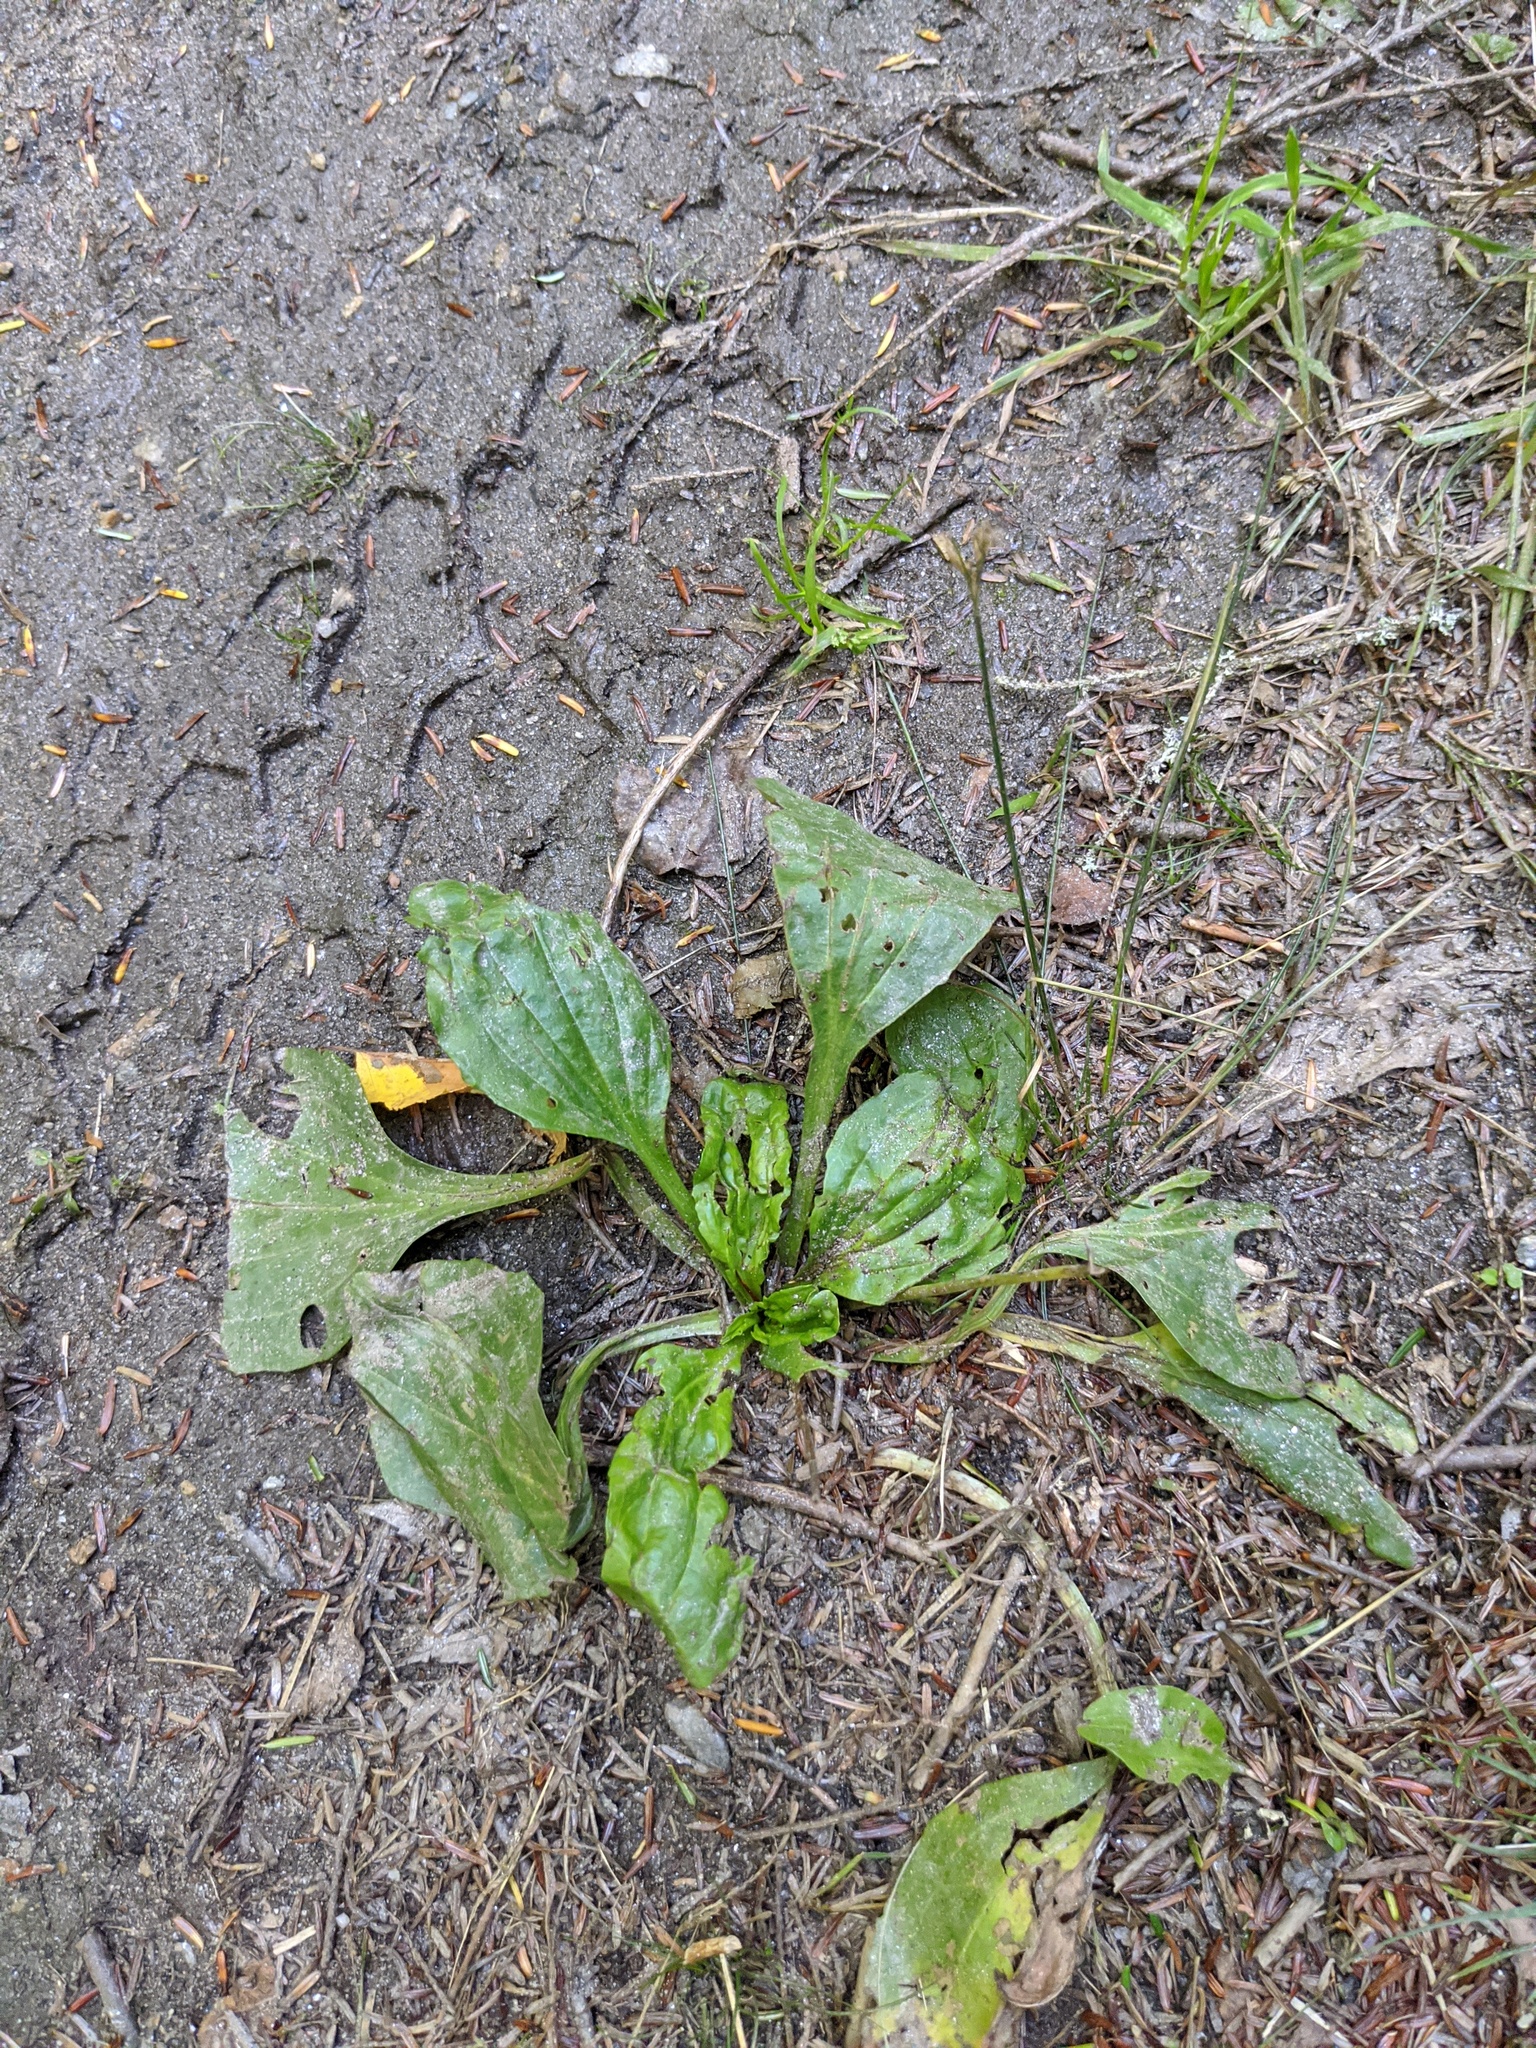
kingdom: Plantae
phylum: Tracheophyta
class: Magnoliopsida
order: Lamiales
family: Plantaginaceae
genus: Plantago
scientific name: Plantago major
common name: Common plantain
